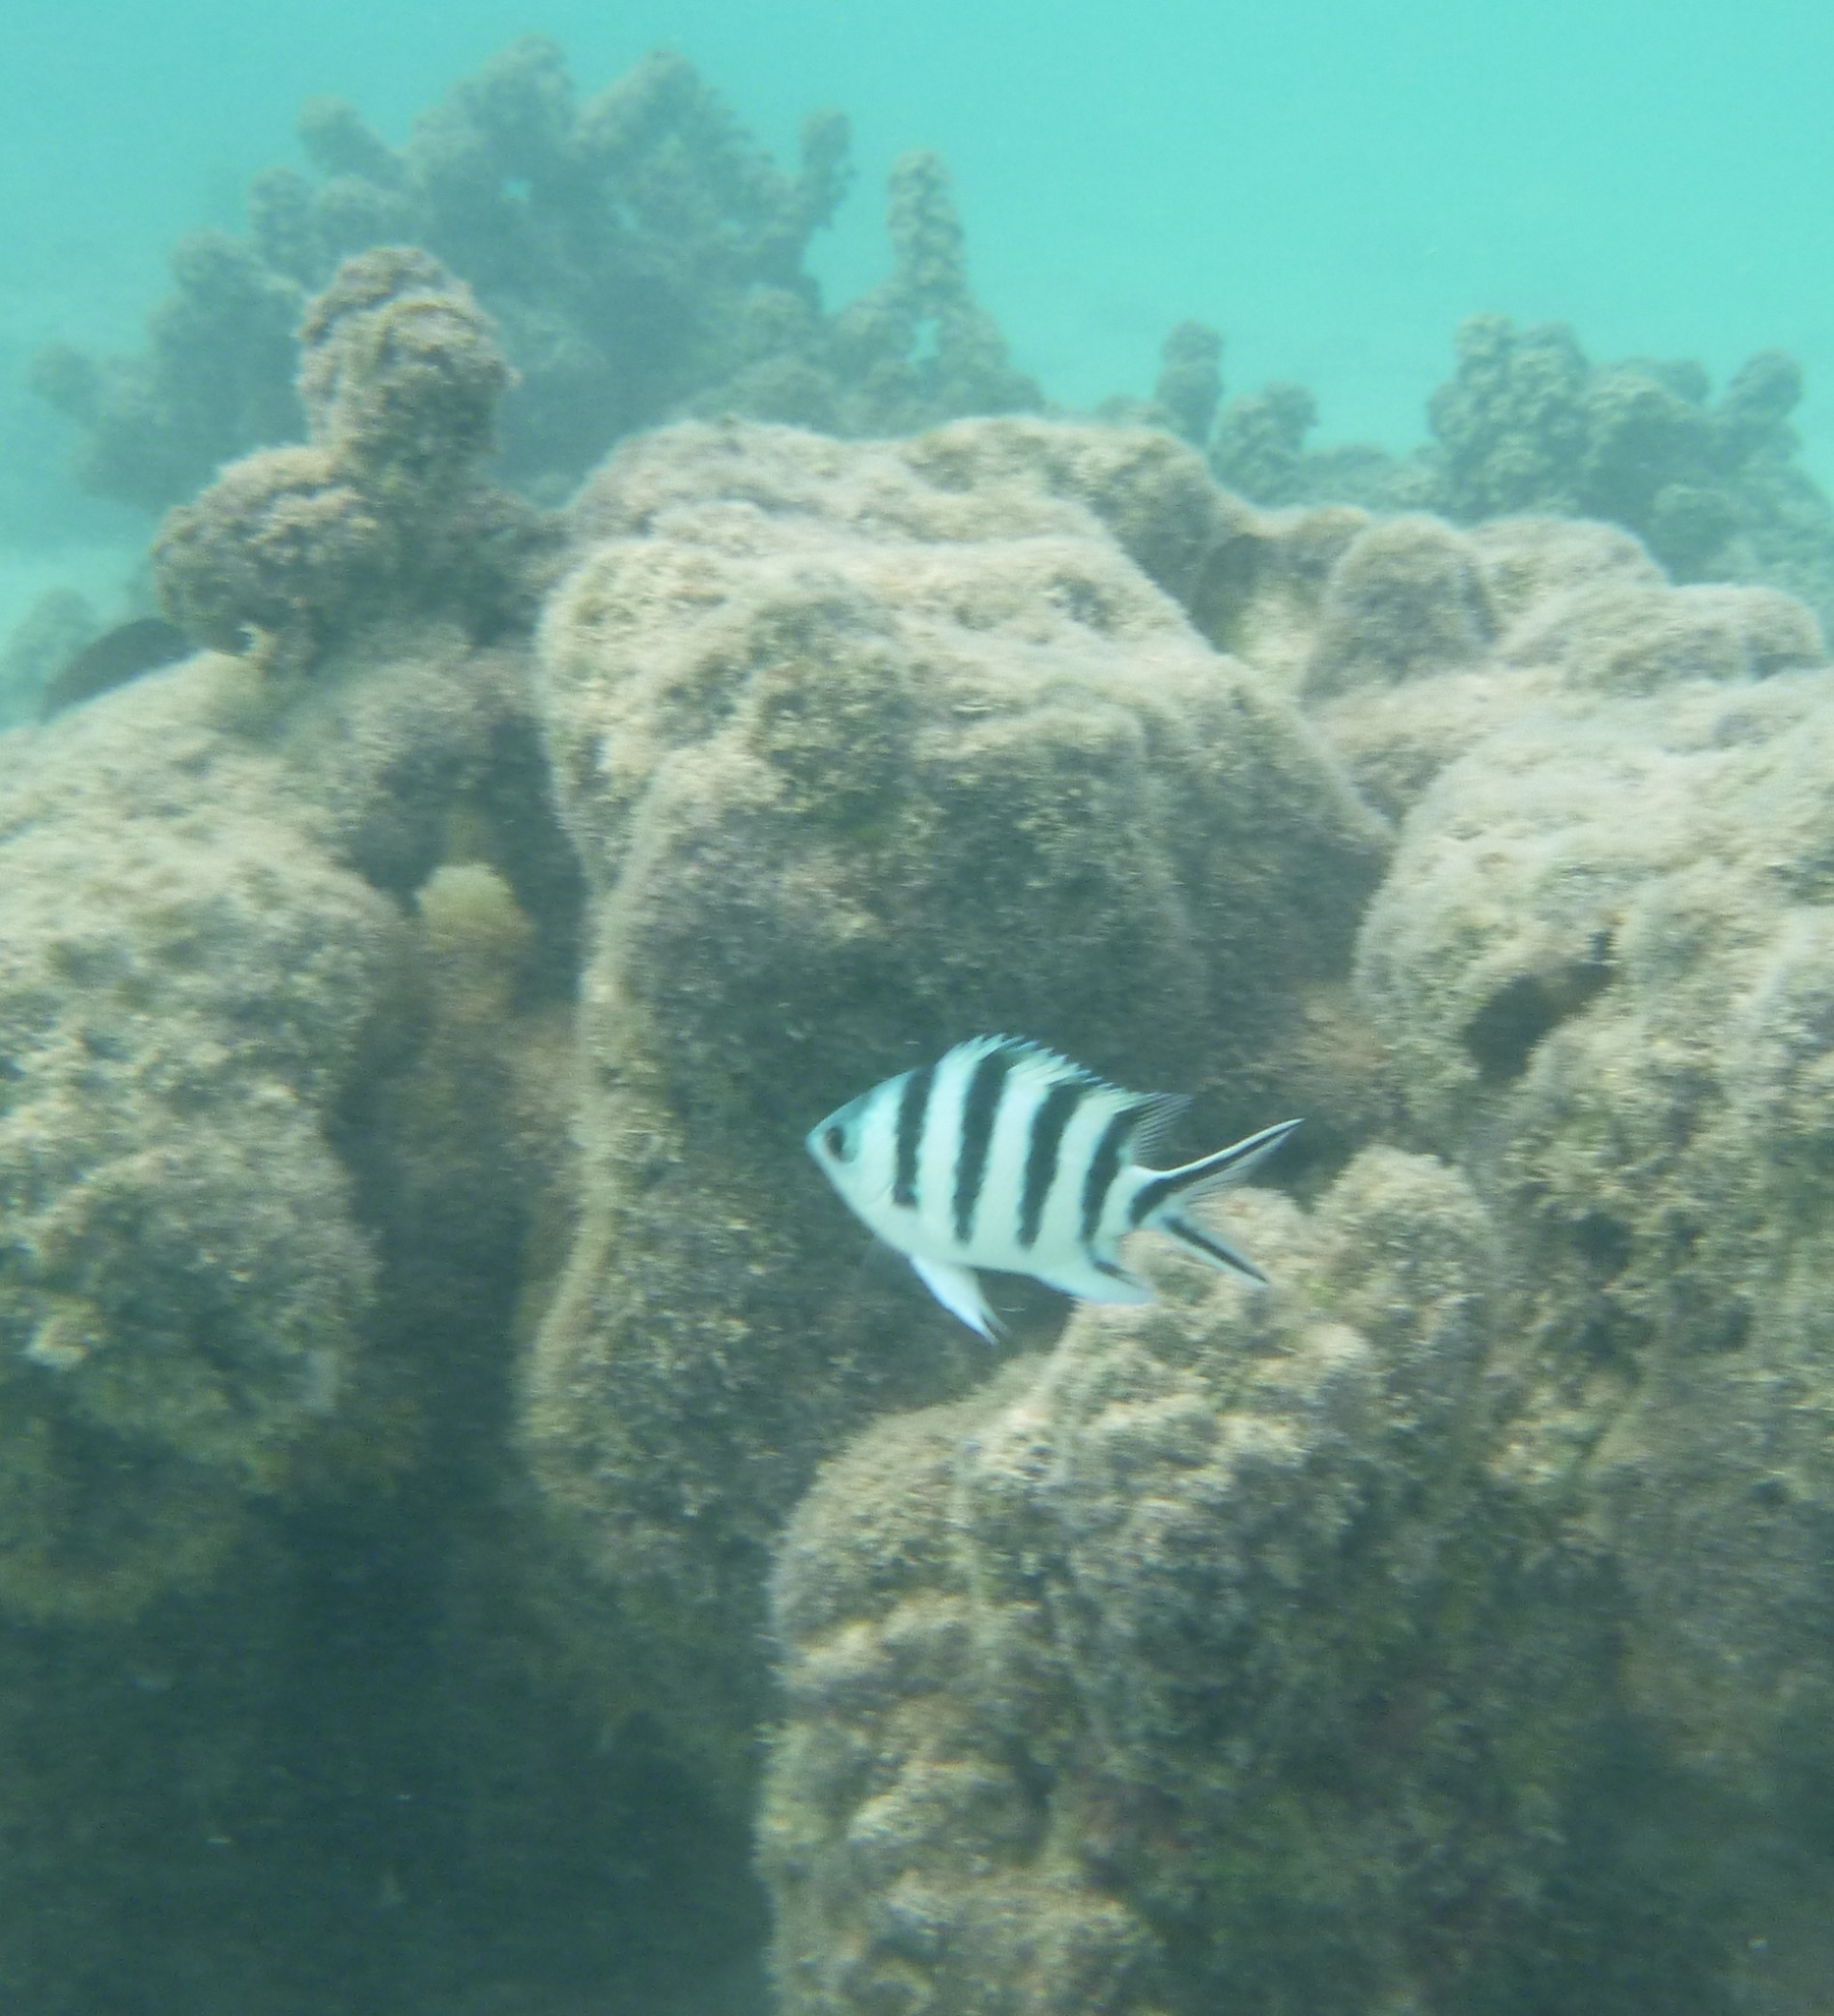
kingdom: Animalia
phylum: Chordata
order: Perciformes
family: Pomacentridae
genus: Abudefduf
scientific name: Abudefduf sexfasciatus
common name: Scissortail sergeant
